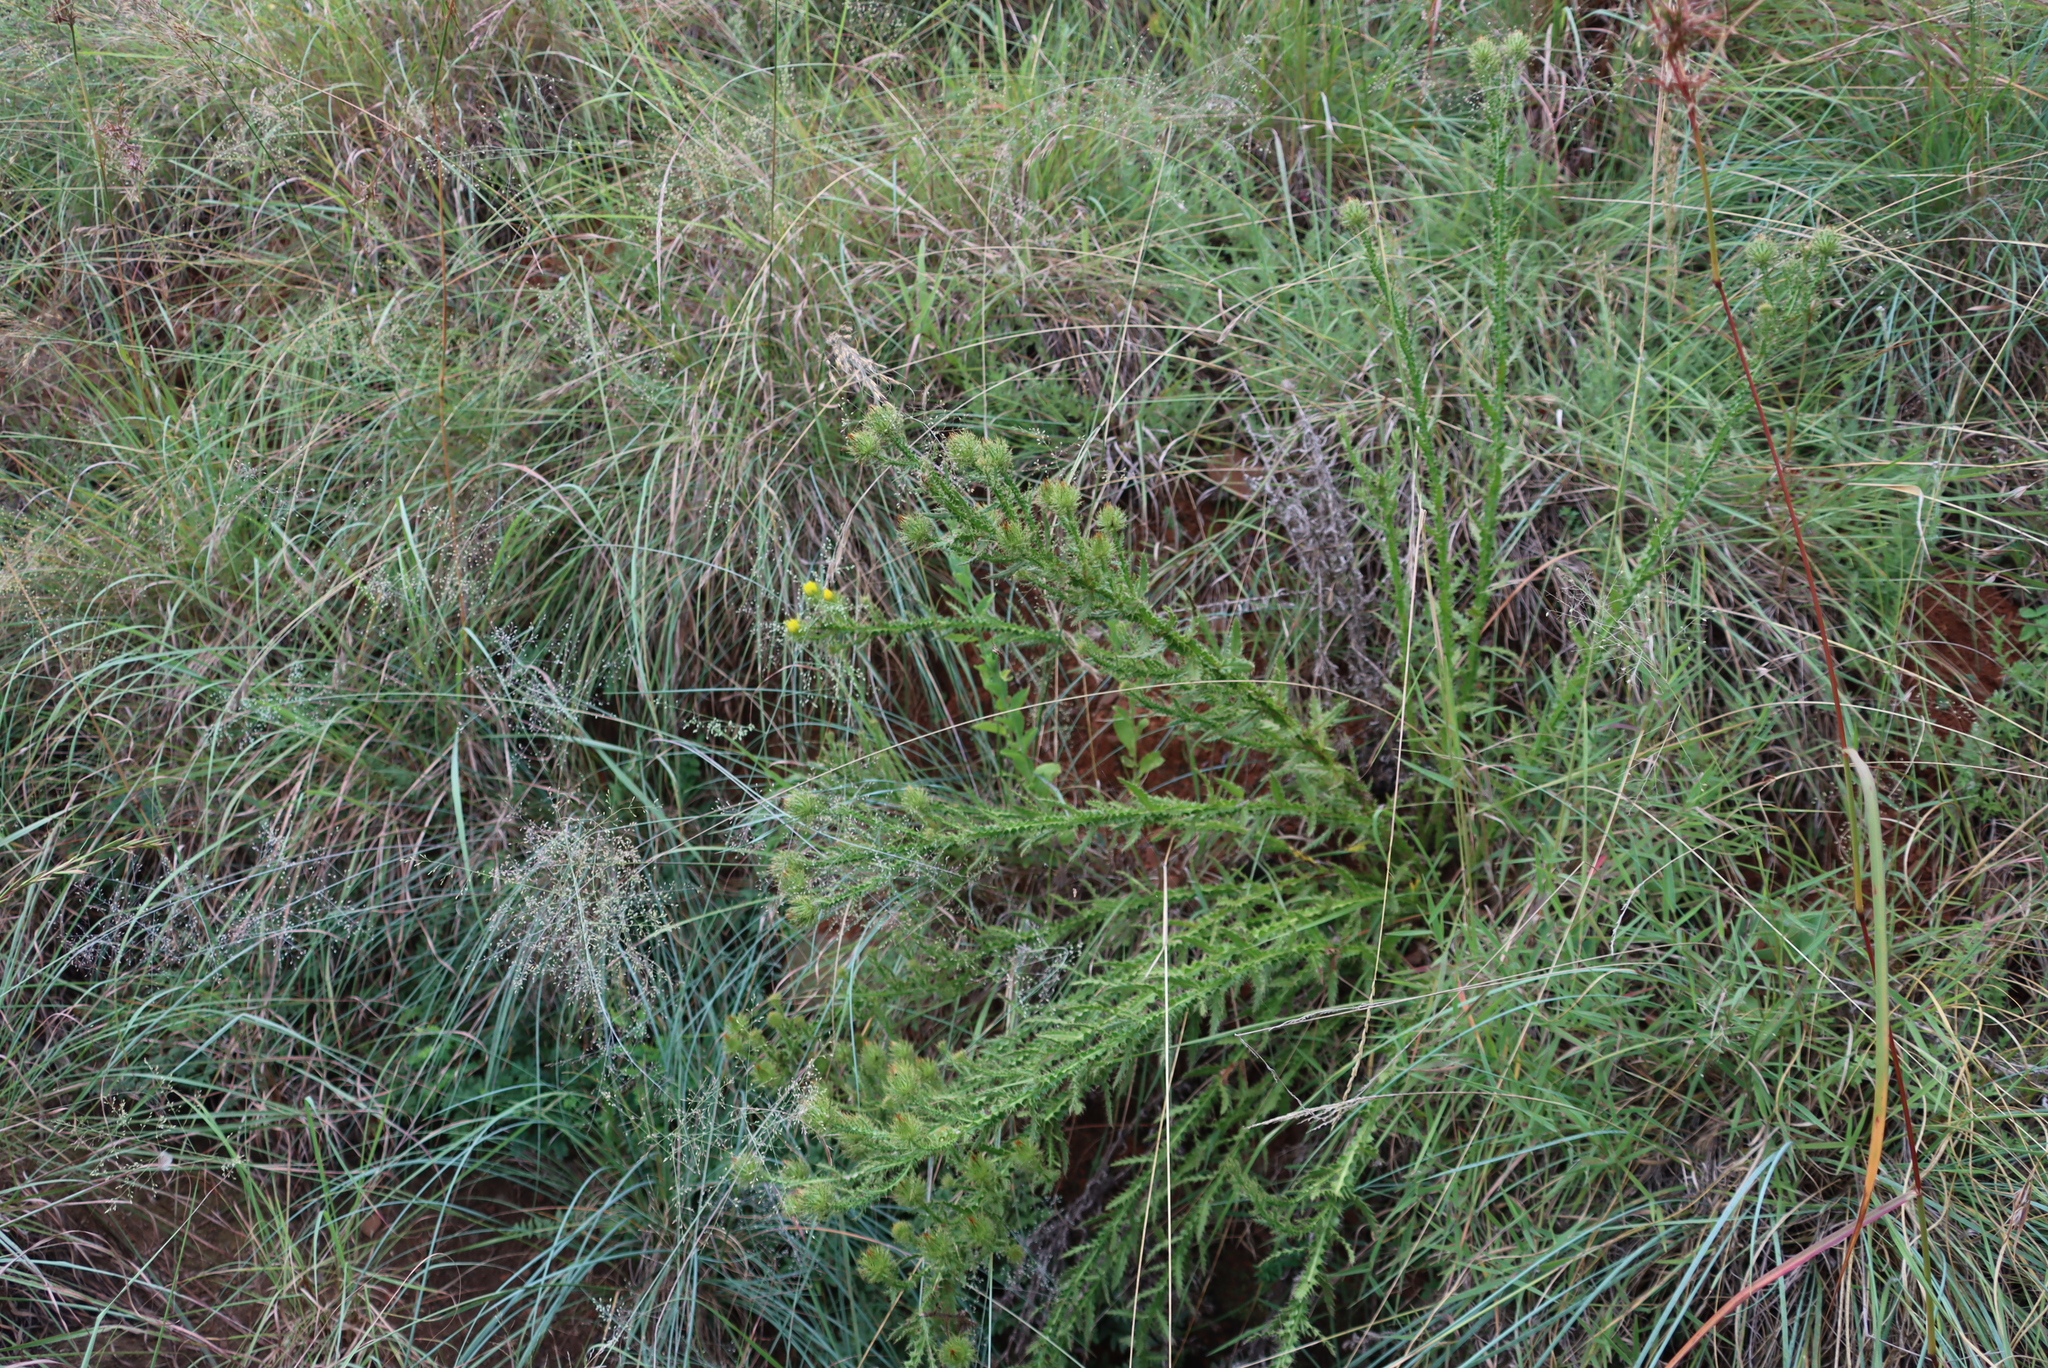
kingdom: Plantae
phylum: Tracheophyta
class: Magnoliopsida
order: Asterales
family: Asteraceae
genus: Berkheya
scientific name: Berkheya echinacea
